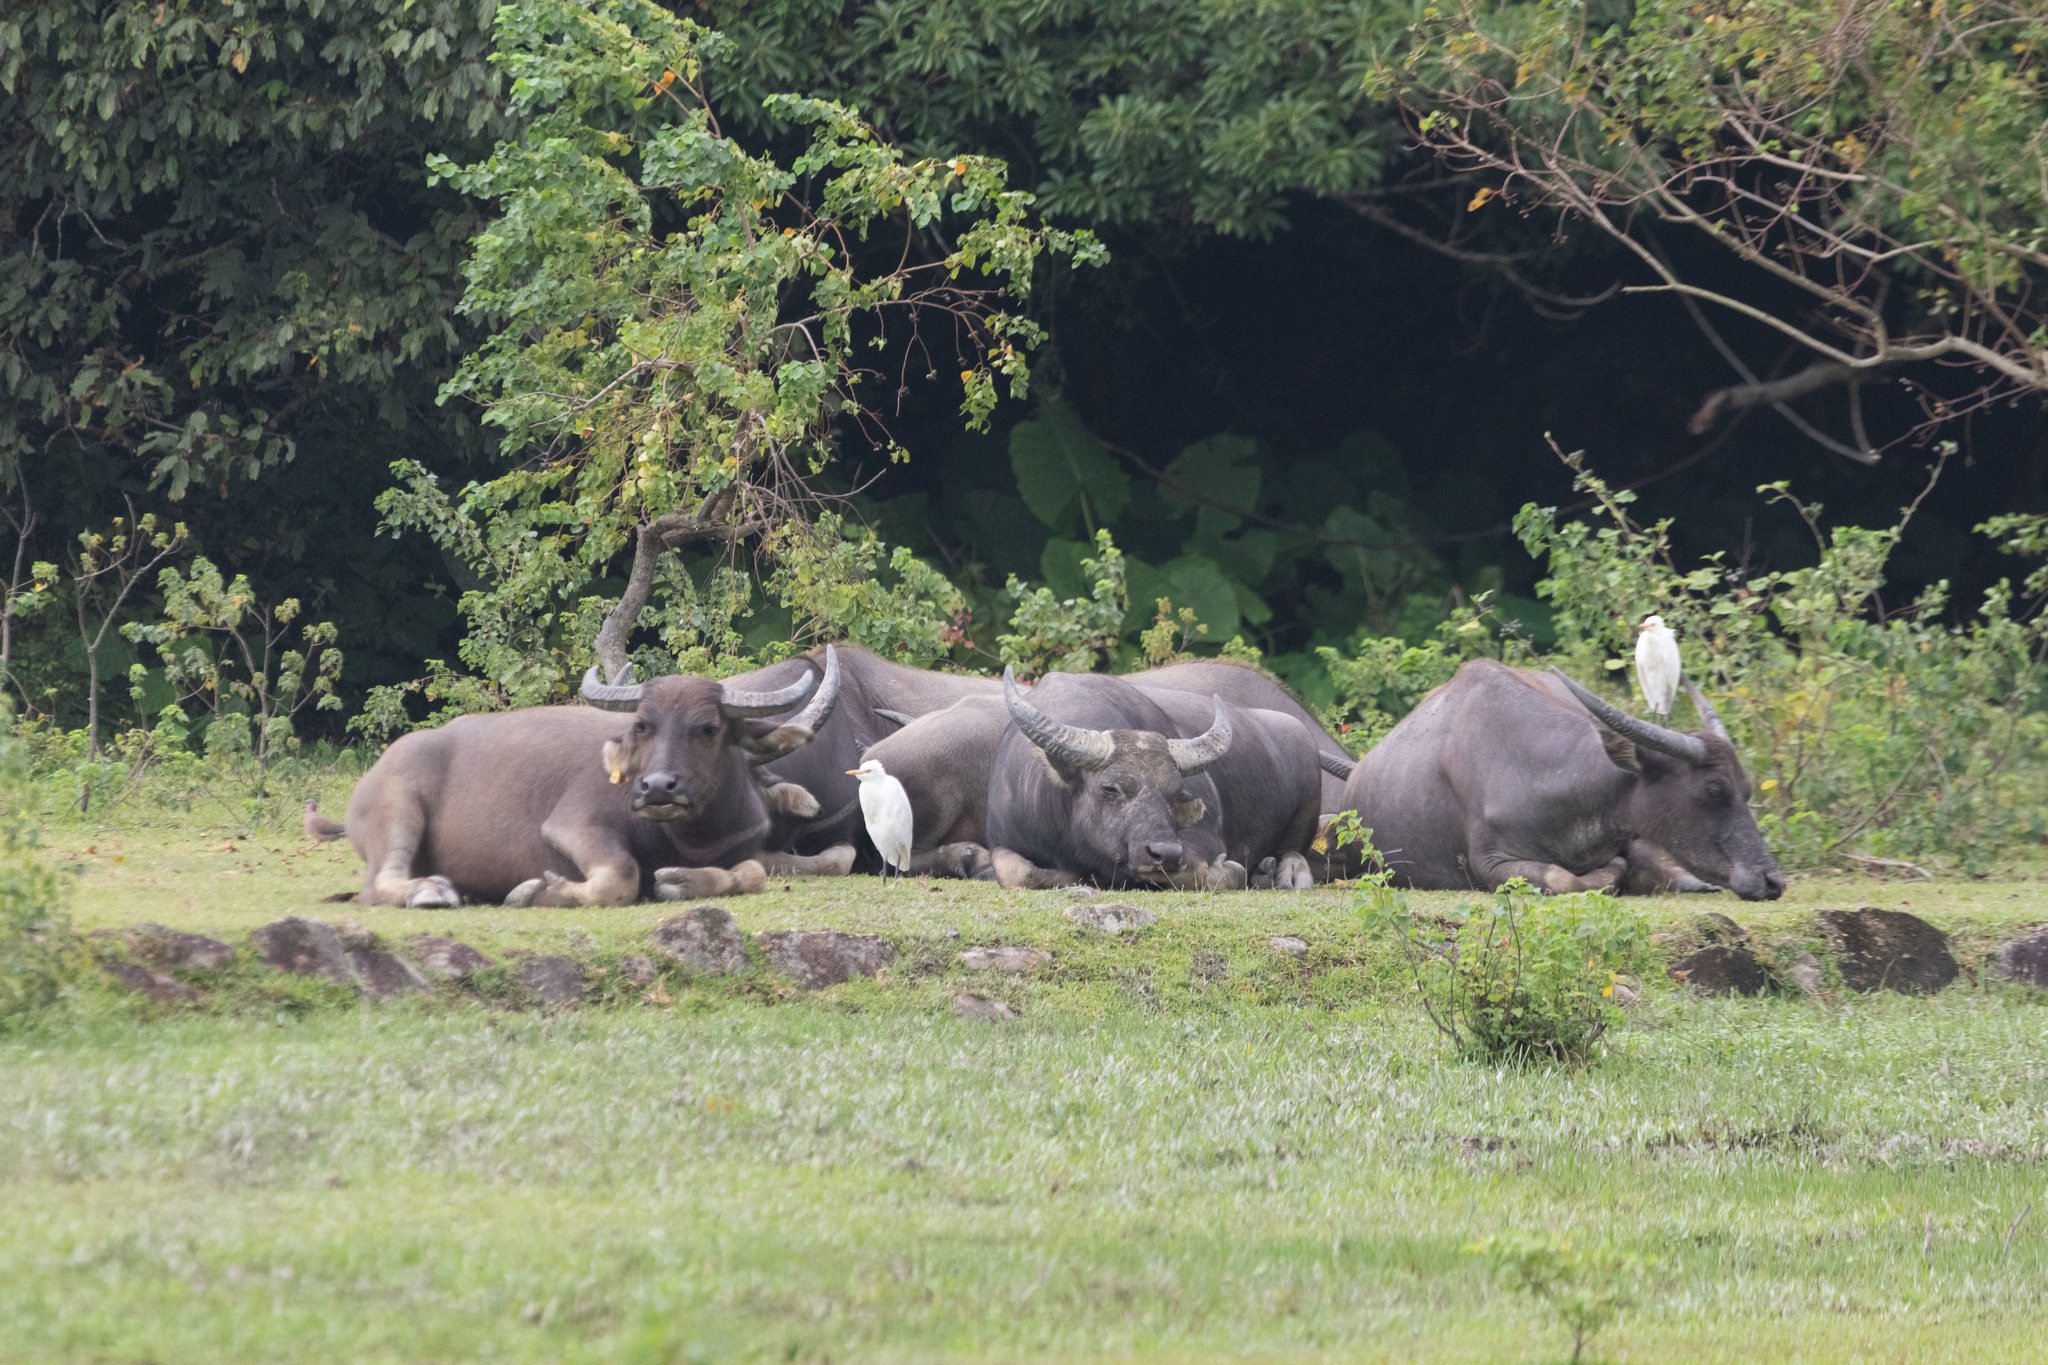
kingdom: Animalia
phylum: Chordata
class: Mammalia
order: Artiodactyla
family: Bovidae
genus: Bubalus
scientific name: Bubalus bubalis
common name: Water buffalo
